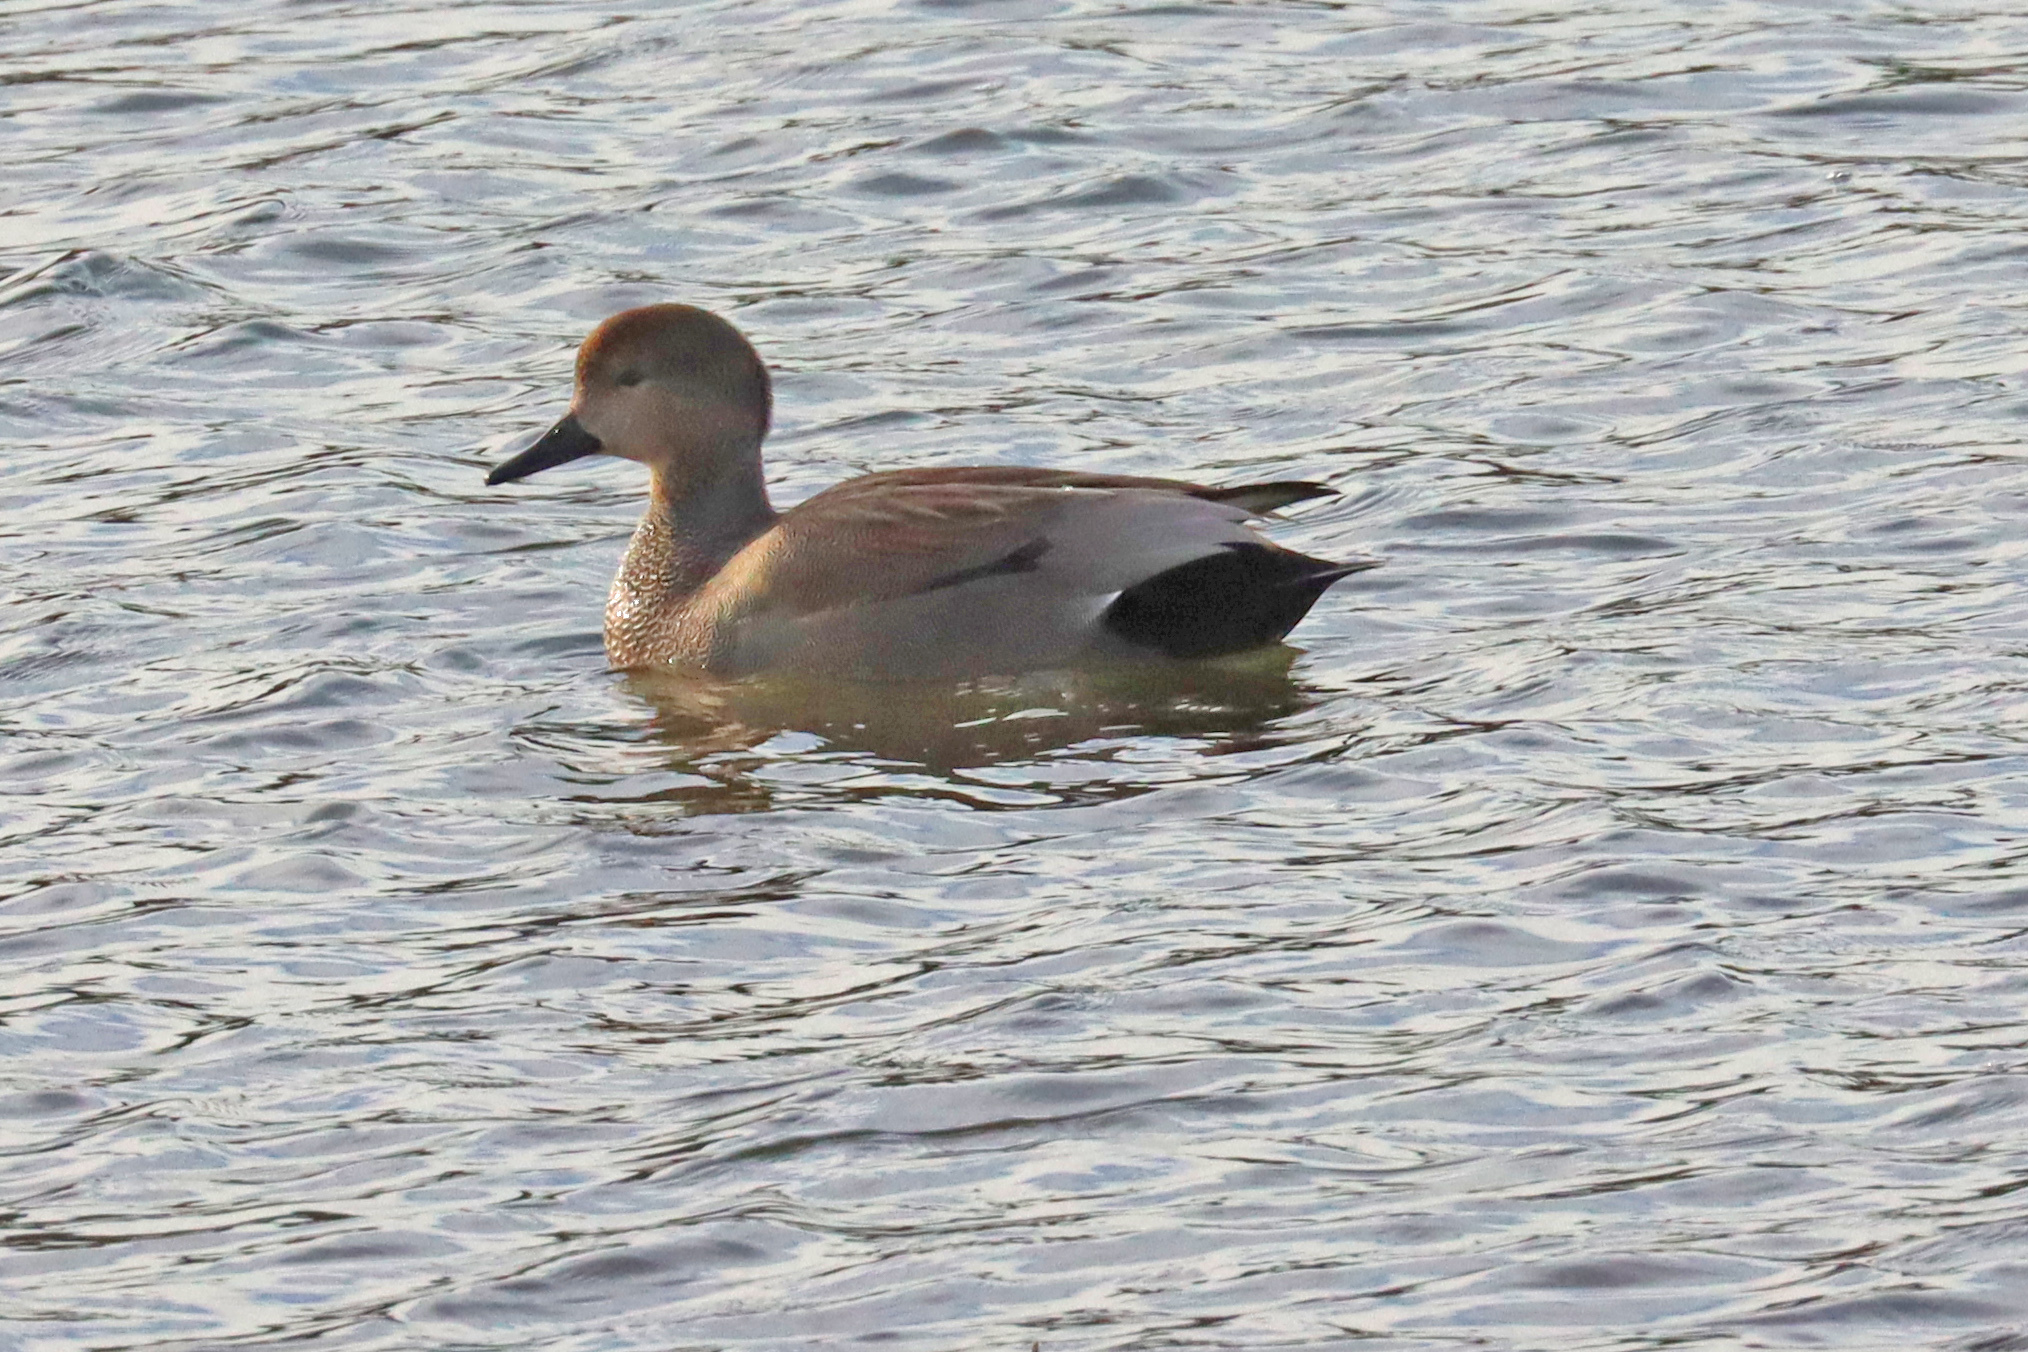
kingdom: Animalia
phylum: Chordata
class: Aves
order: Anseriformes
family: Anatidae
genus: Mareca
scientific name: Mareca strepera
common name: Gadwall
